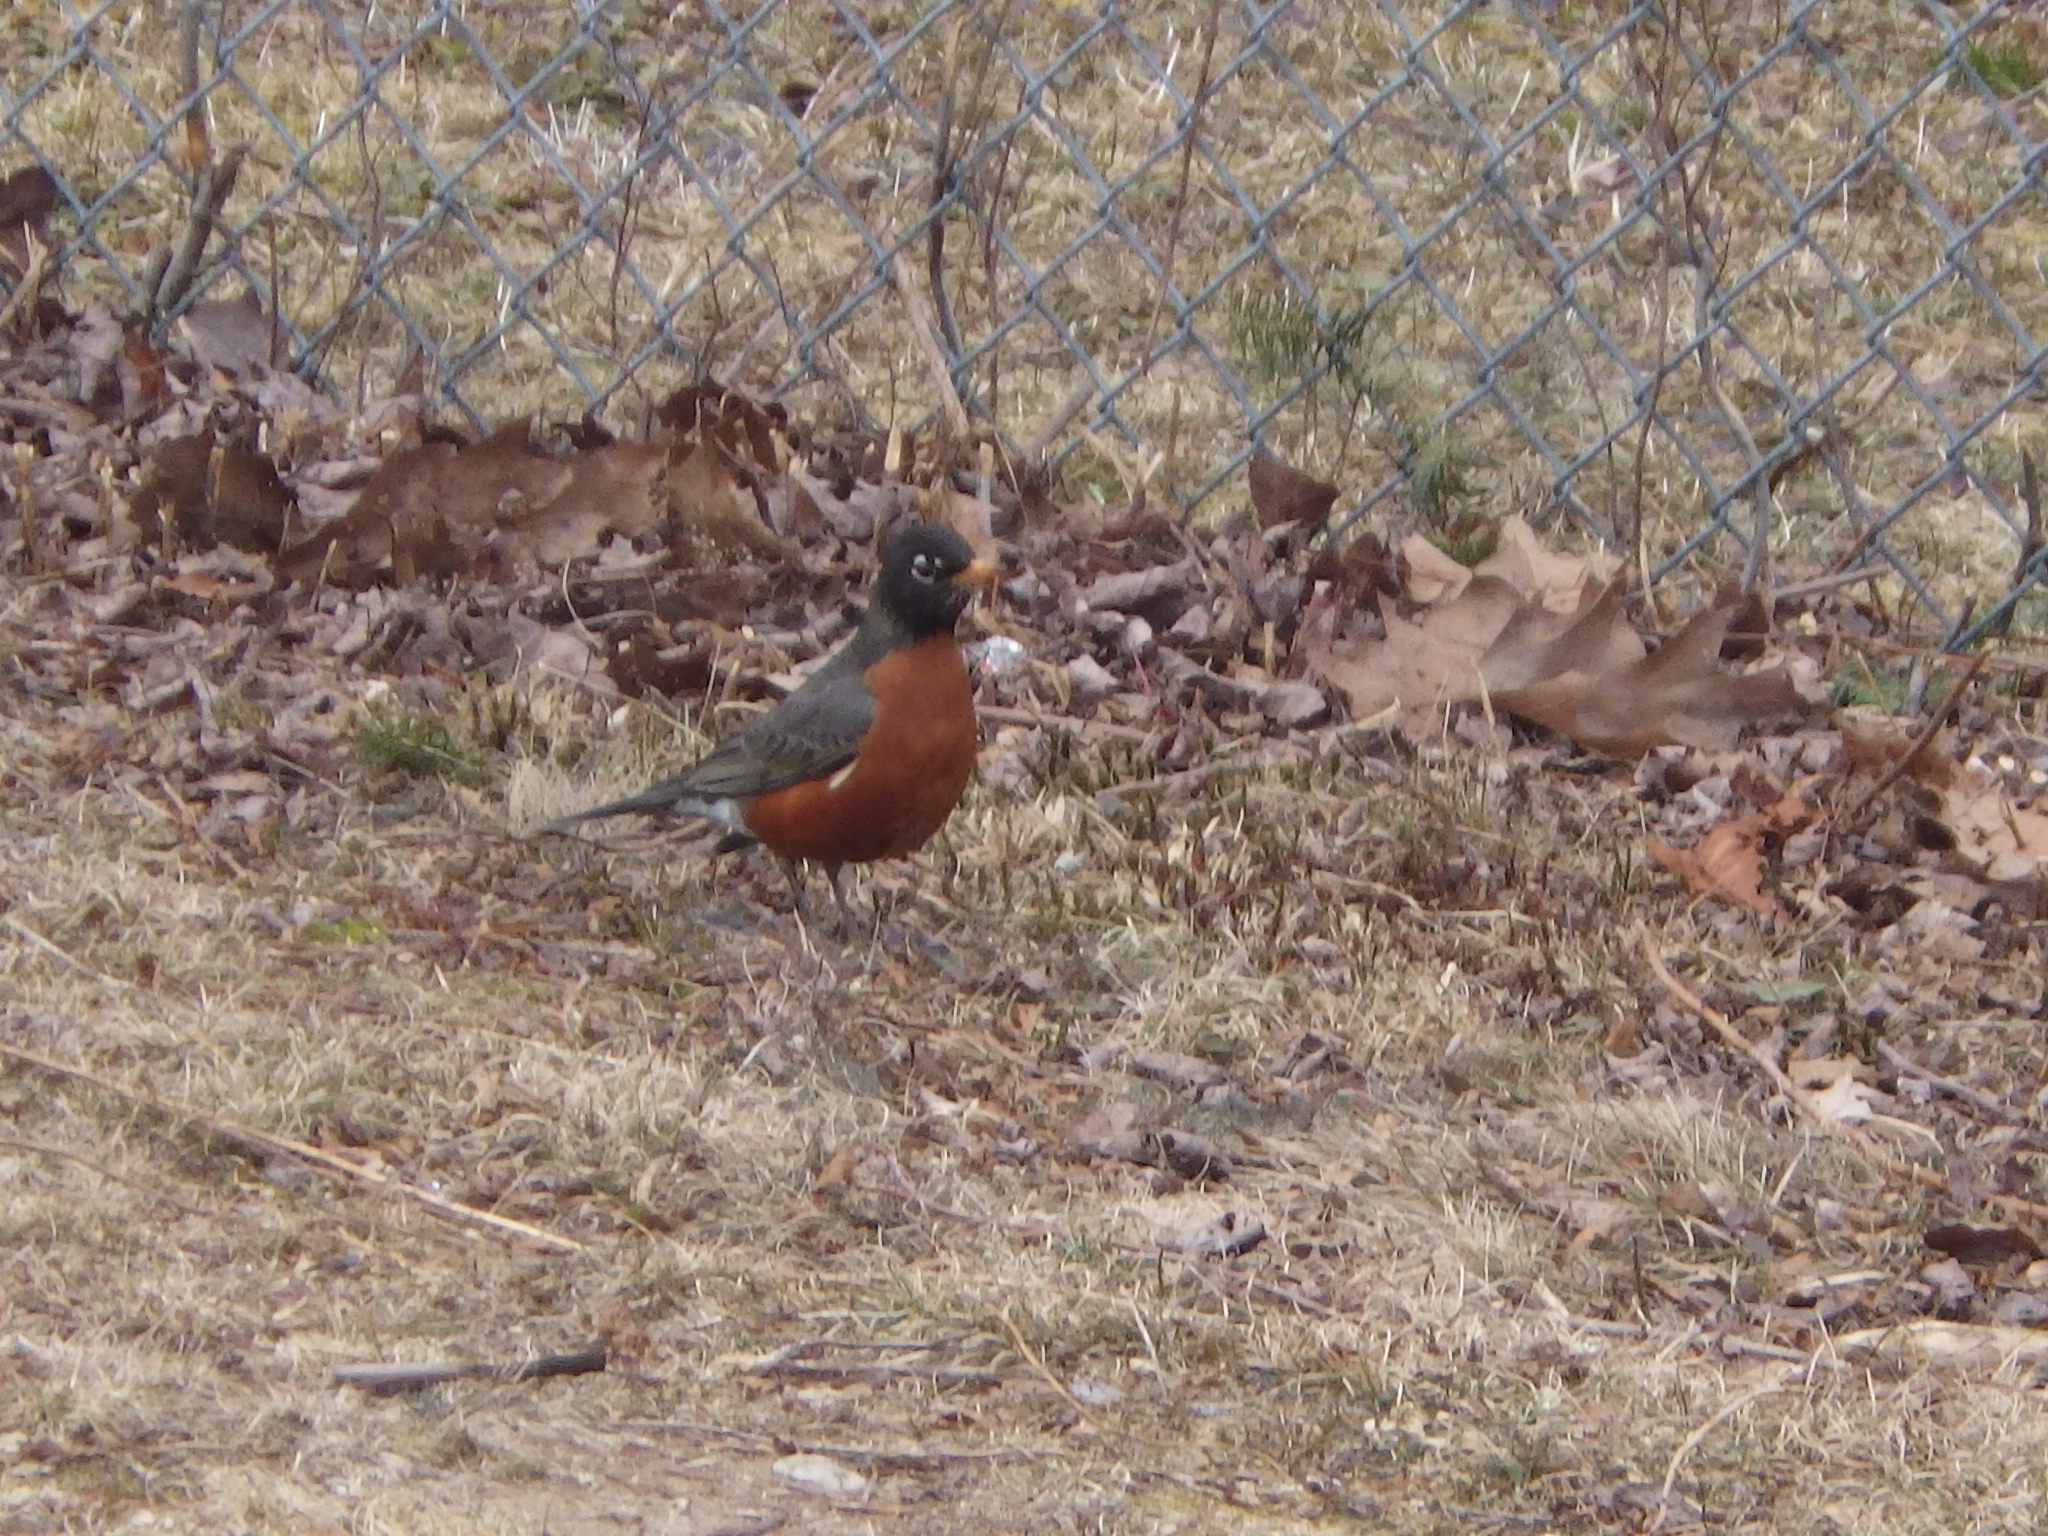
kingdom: Animalia
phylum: Chordata
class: Aves
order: Passeriformes
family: Turdidae
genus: Turdus
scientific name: Turdus migratorius
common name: American robin
